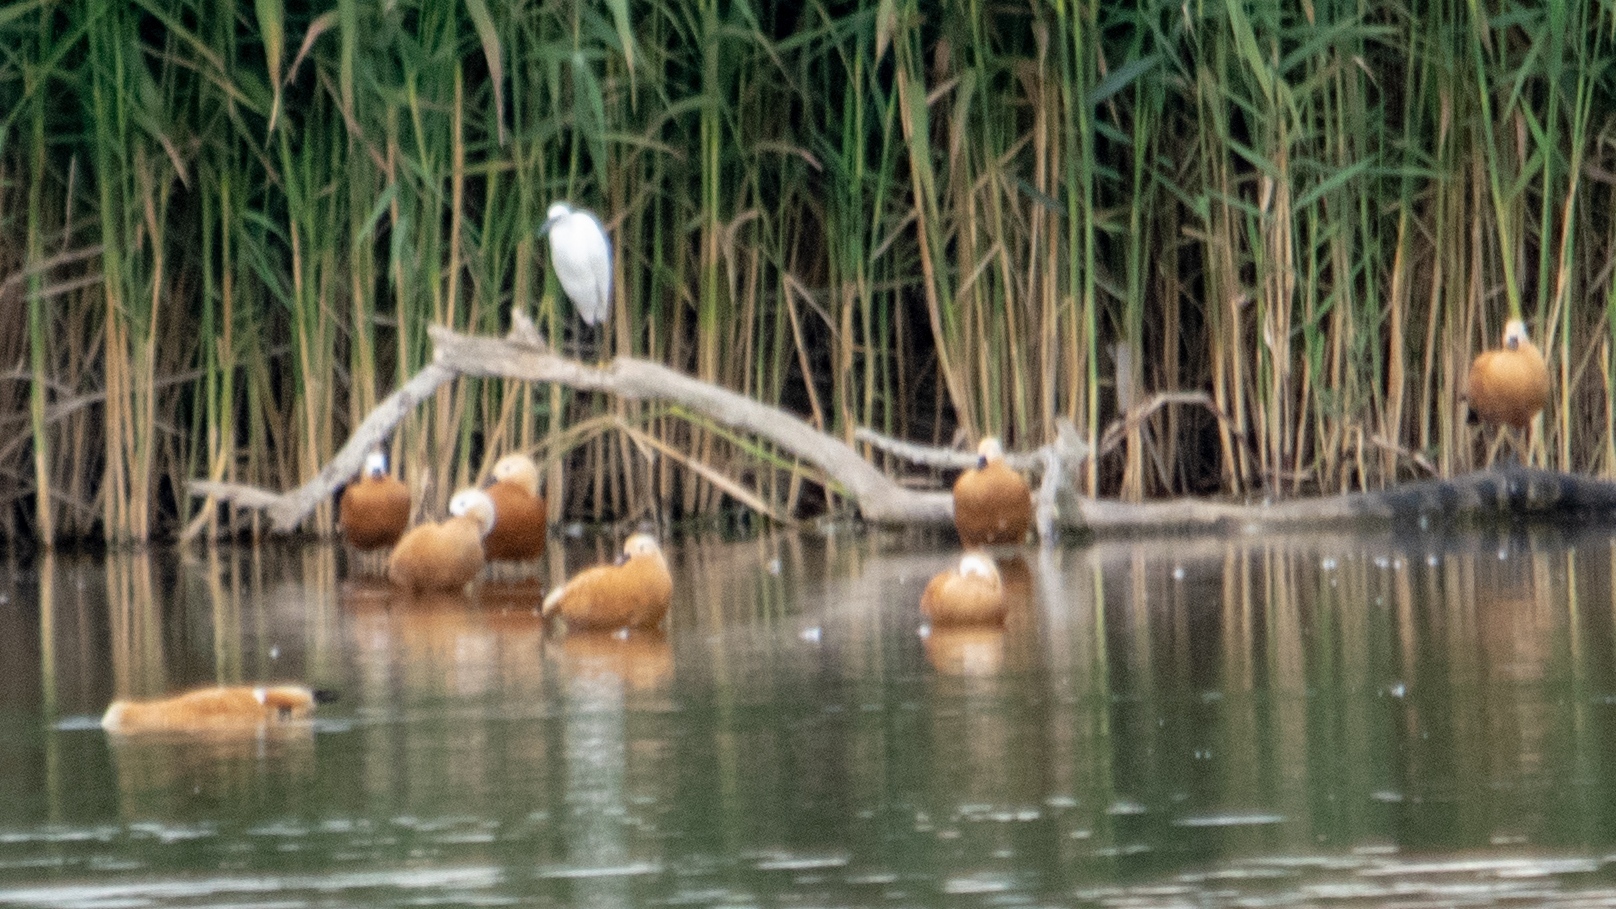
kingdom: Animalia
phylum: Chordata
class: Aves
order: Pelecaniformes
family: Ardeidae
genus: Egretta
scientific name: Egretta garzetta
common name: Little egret
